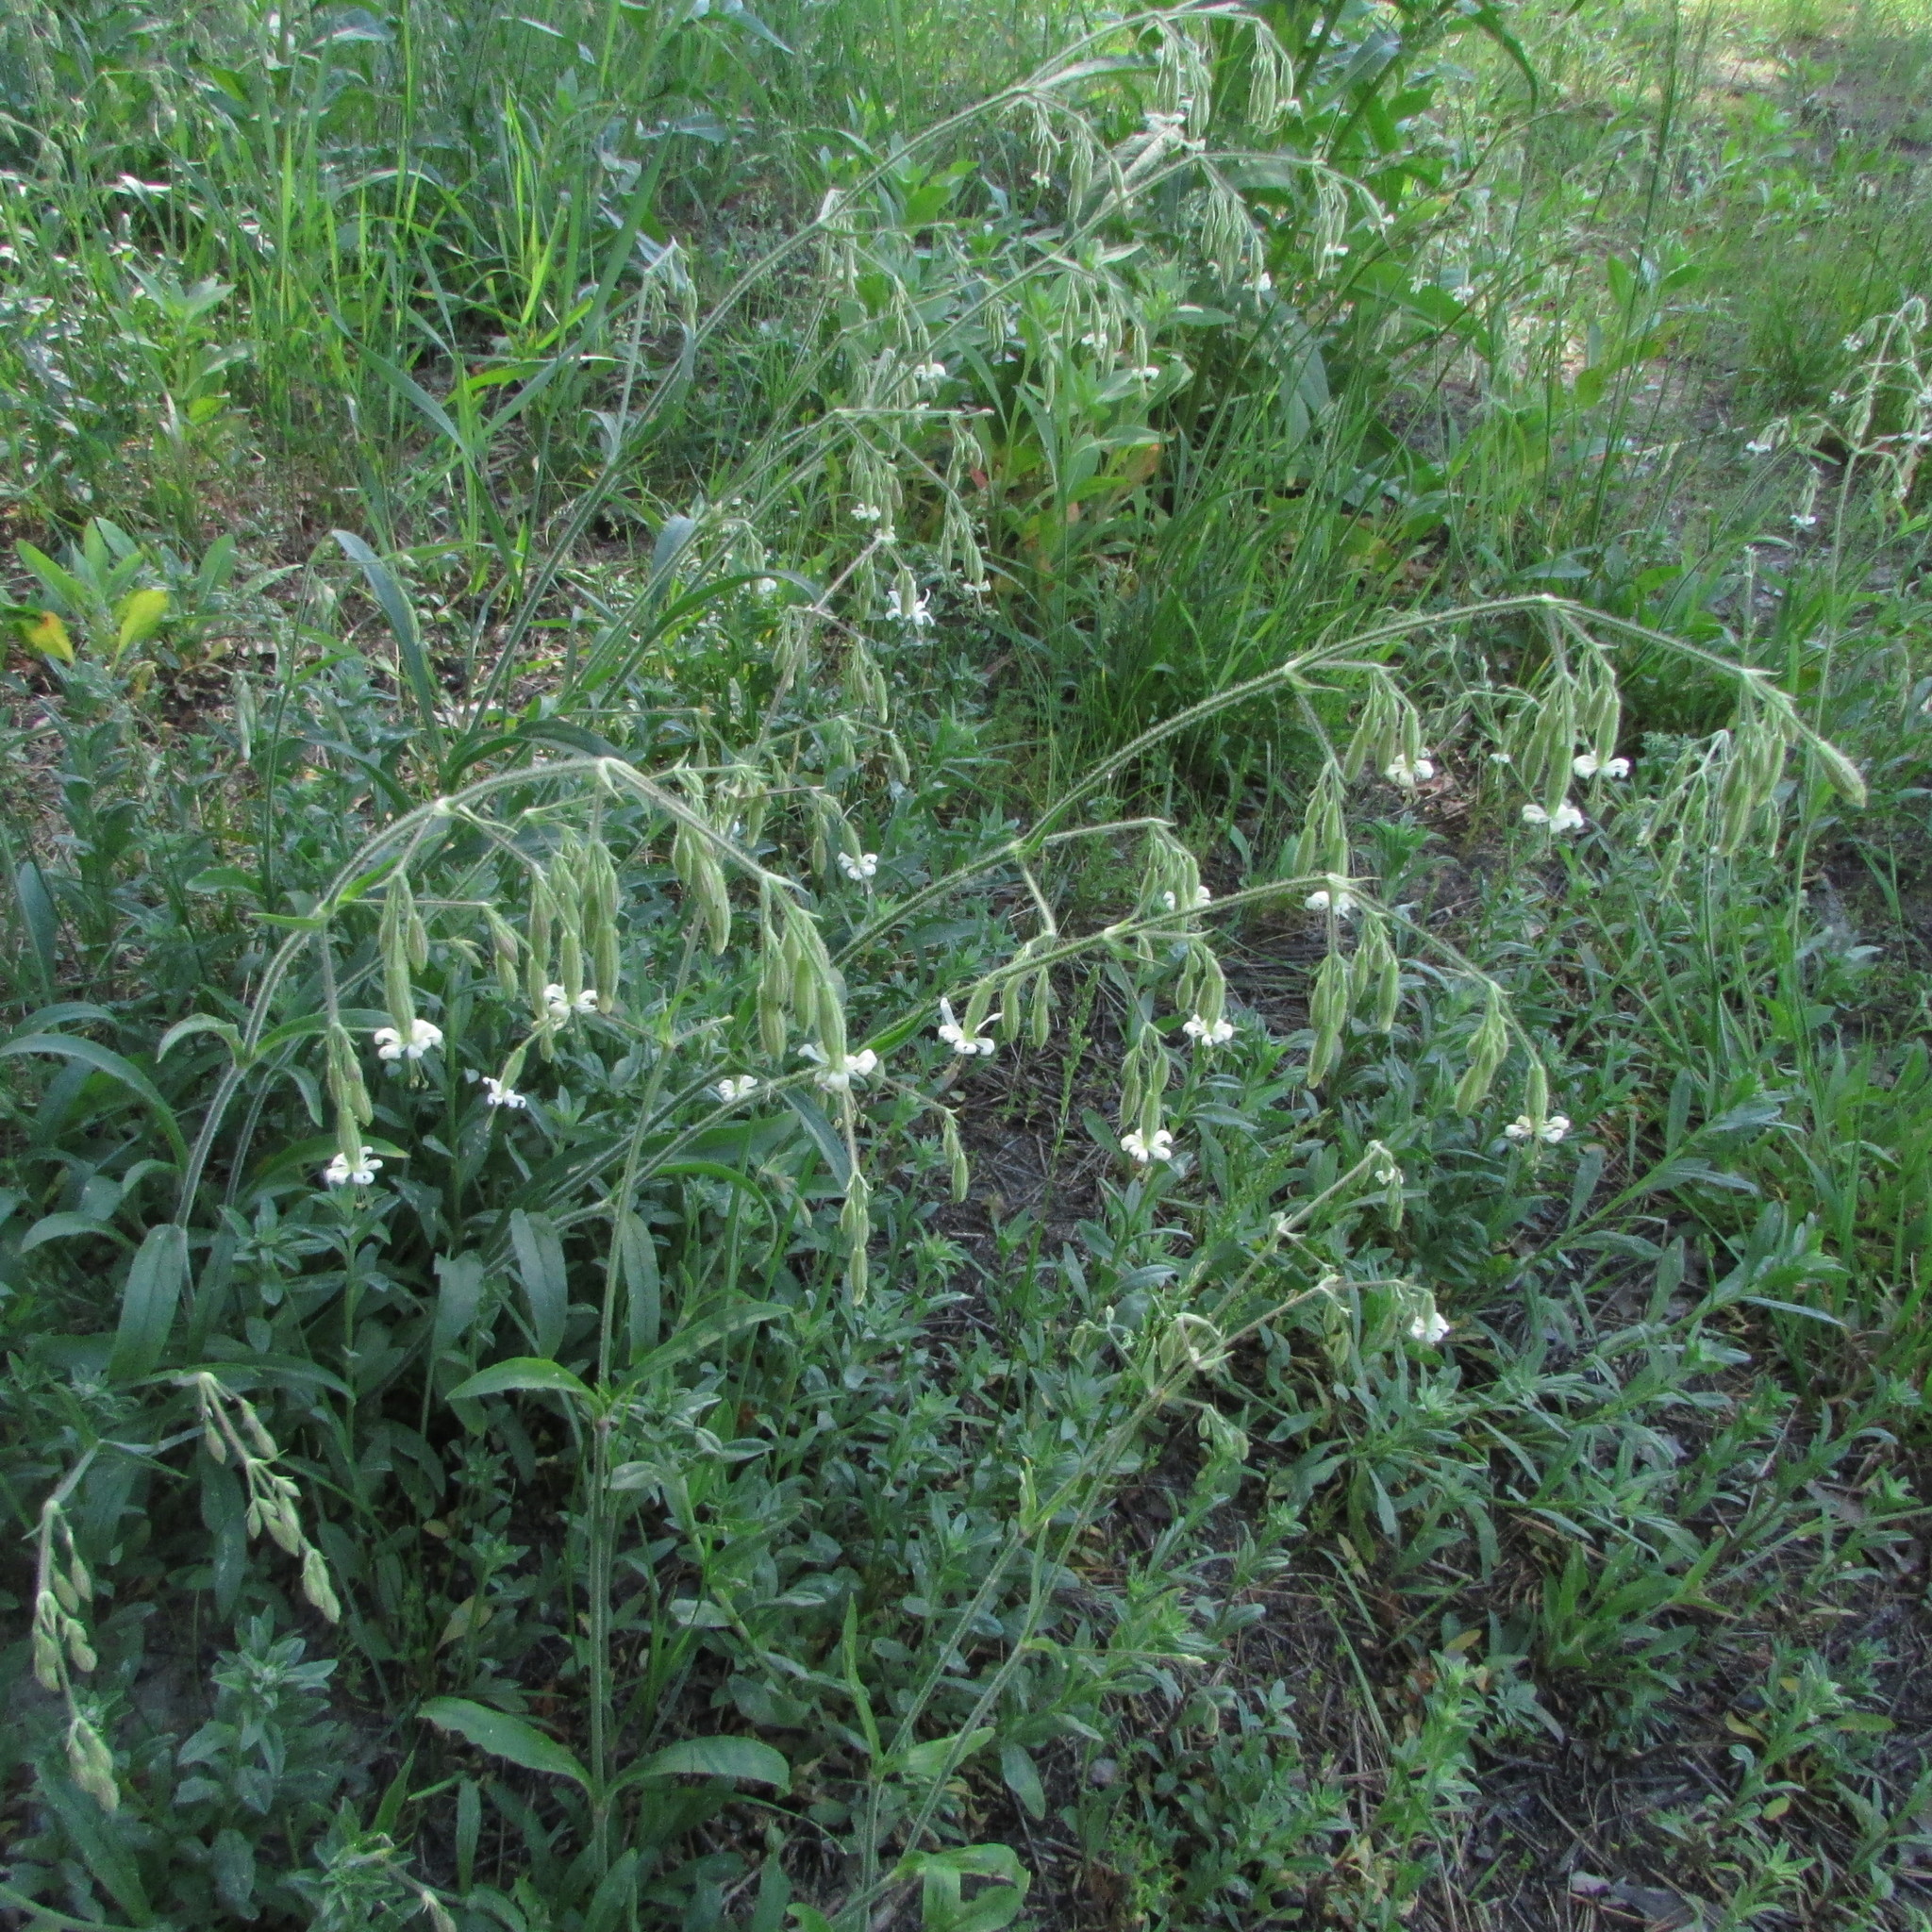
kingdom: Plantae
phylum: Tracheophyta
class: Magnoliopsida
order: Caryophyllales
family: Caryophyllaceae
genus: Silene
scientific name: Silene nutans
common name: Nottingham catchfly
